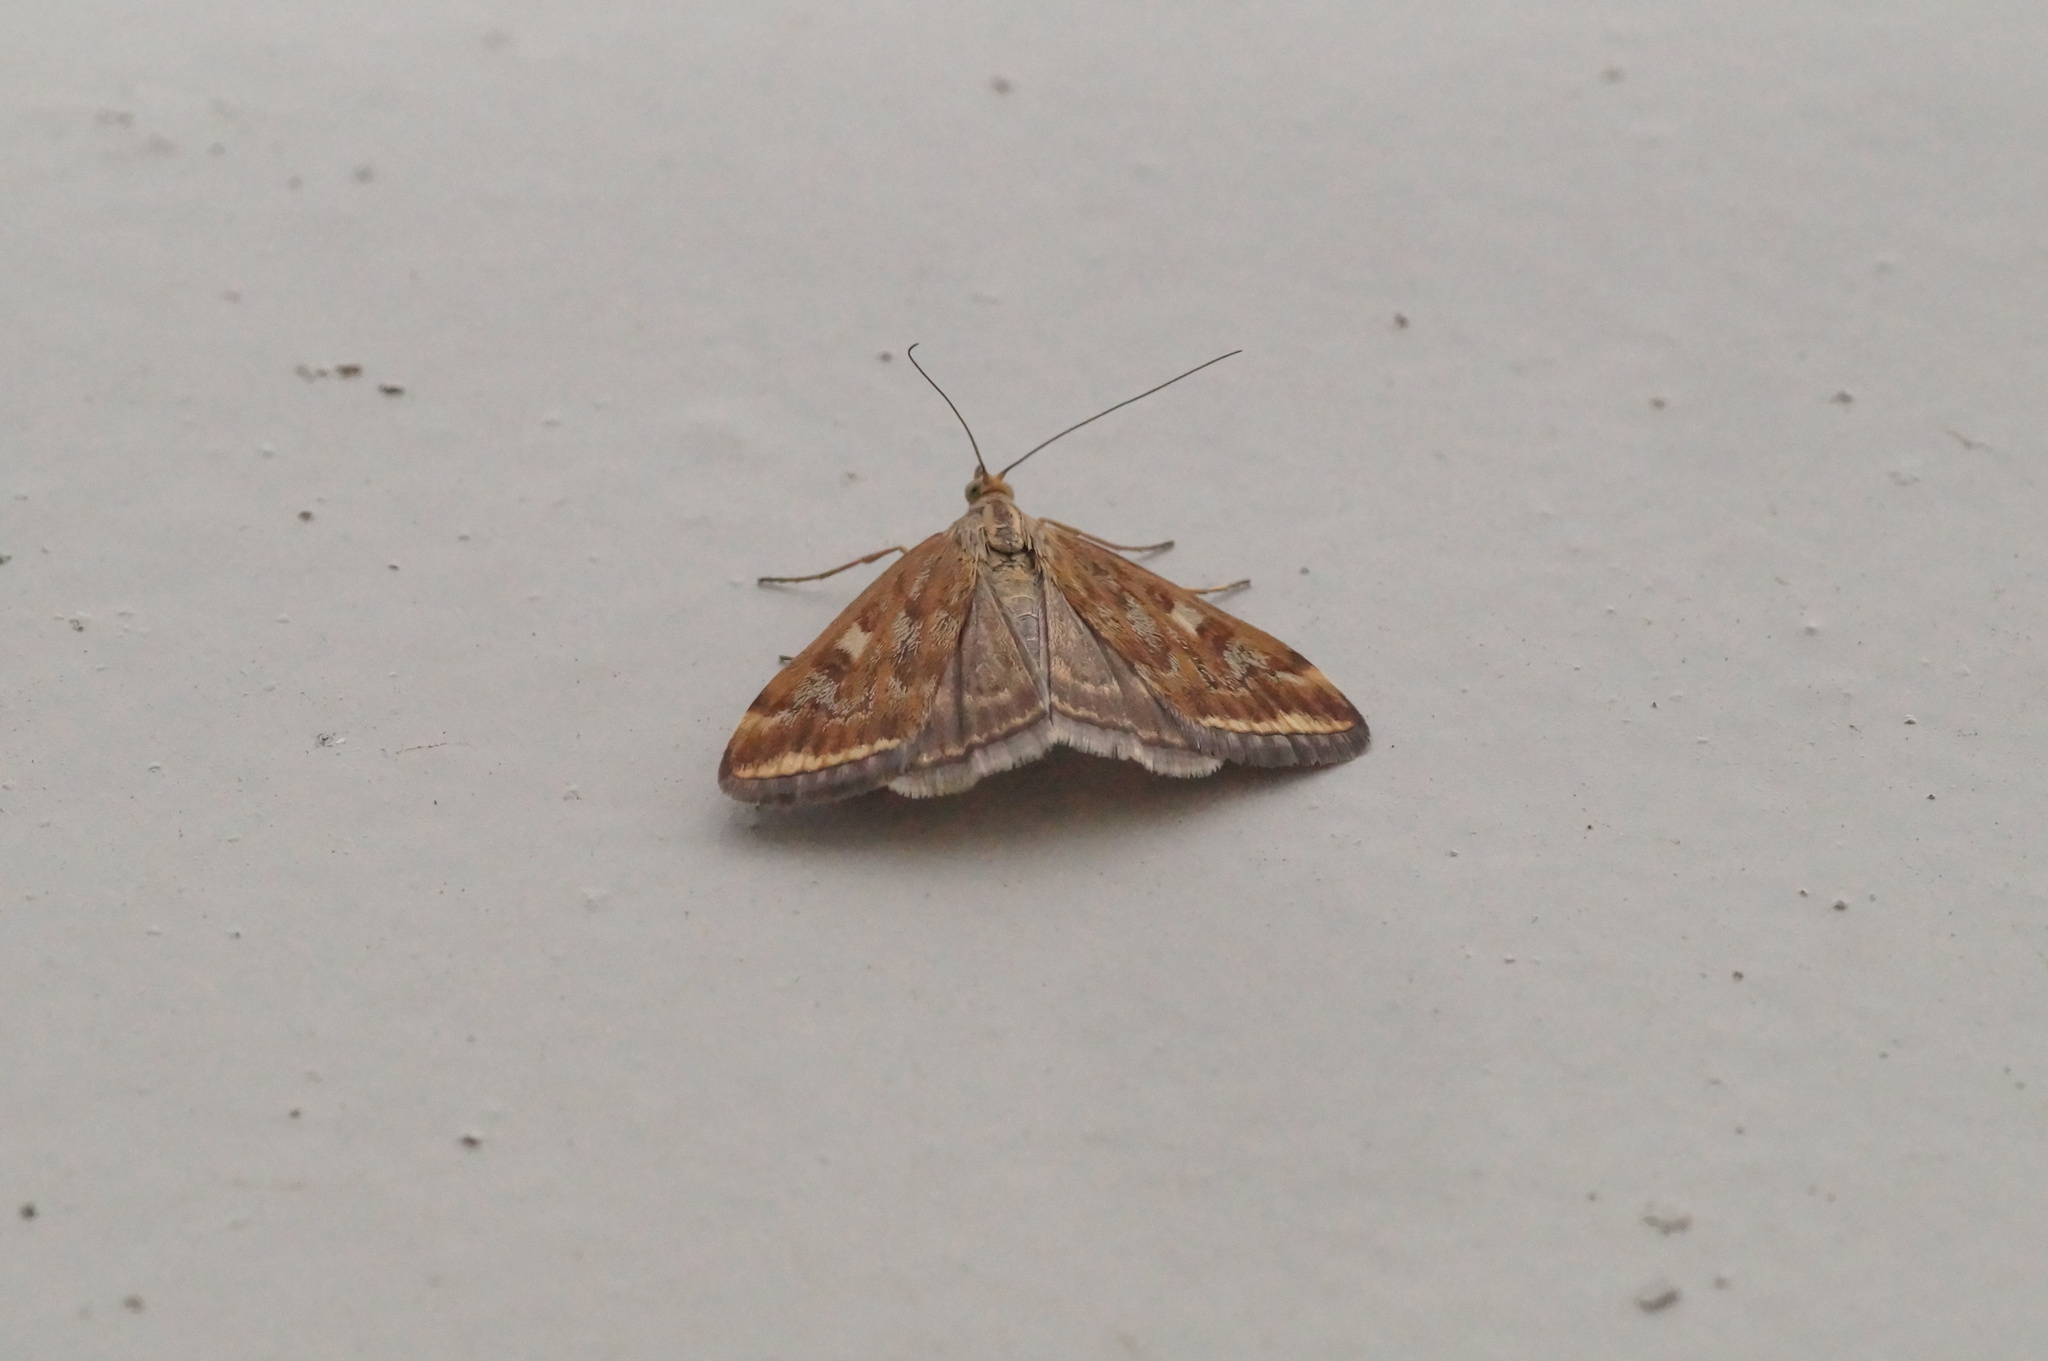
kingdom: Animalia
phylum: Arthropoda
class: Insecta
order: Lepidoptera
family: Crambidae
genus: Loxostege
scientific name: Loxostege sticticalis
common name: Crambid moth
